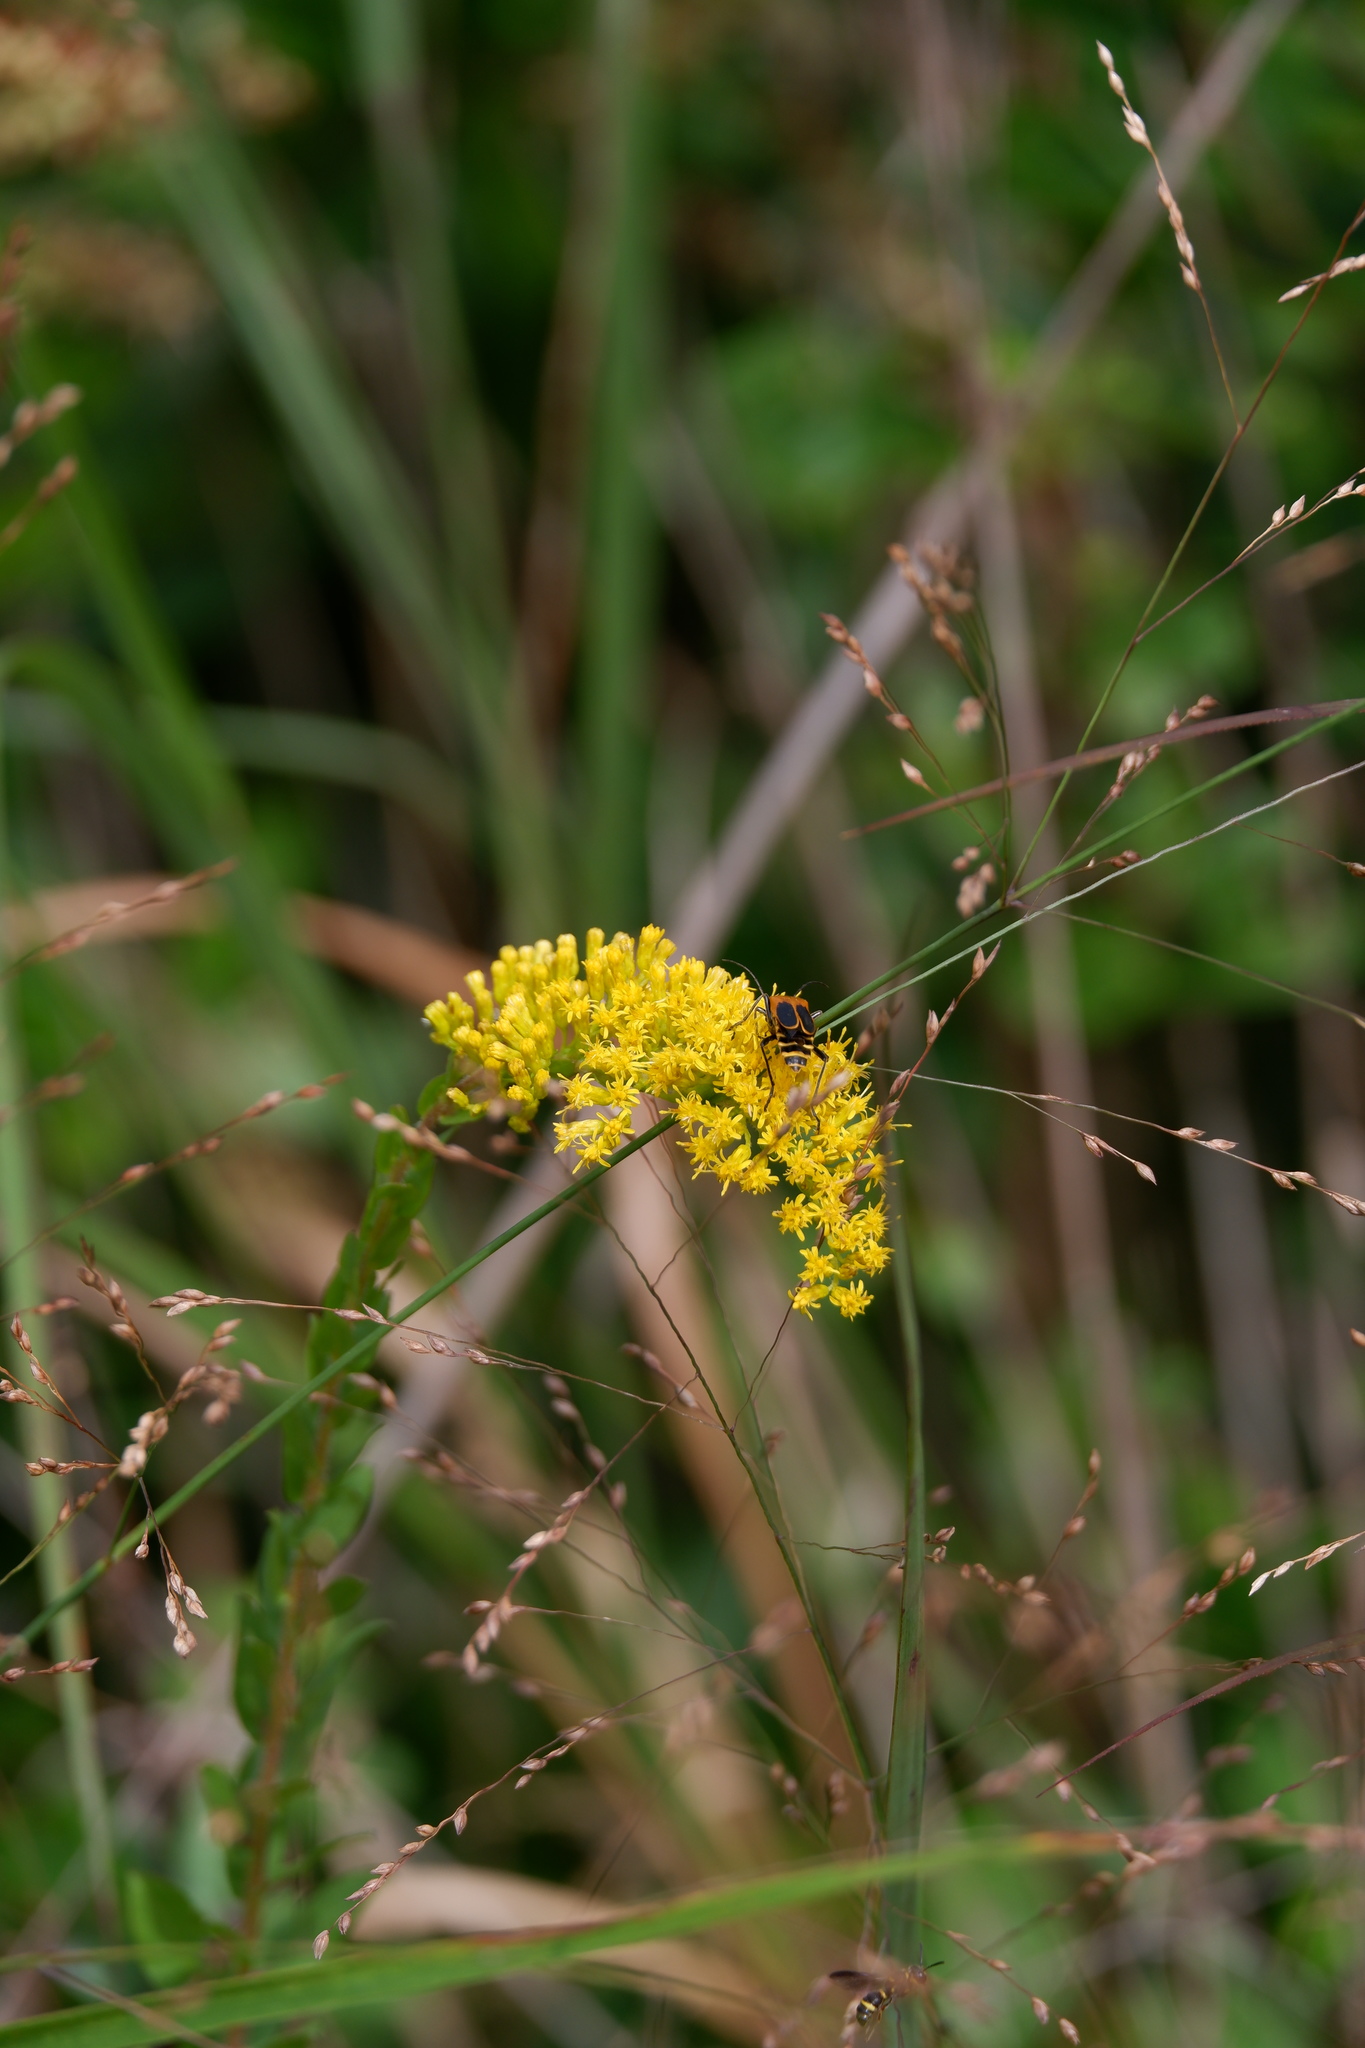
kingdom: Animalia
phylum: Arthropoda
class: Insecta
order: Coleoptera
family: Cantharidae
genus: Chauliognathus
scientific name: Chauliognathus pensylvanicus
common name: Goldenrod soldier beetle
